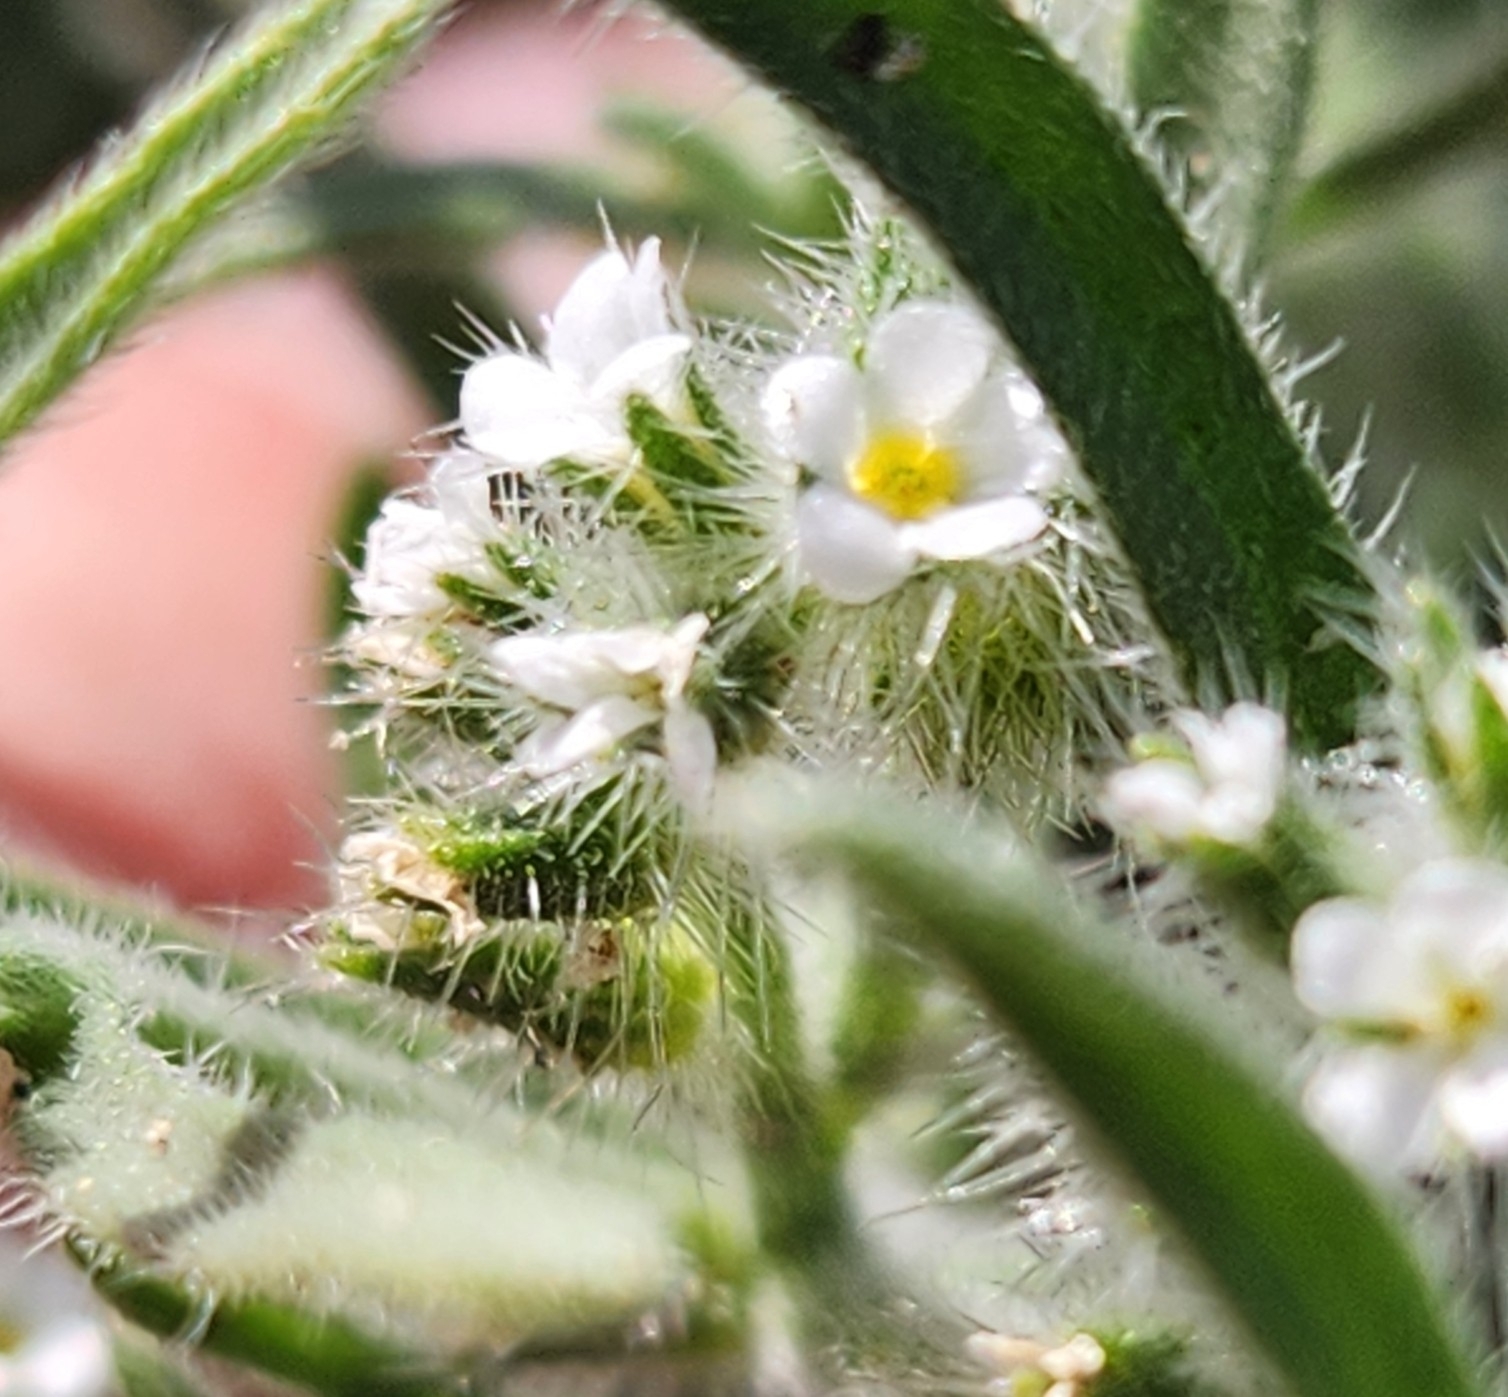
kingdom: Plantae
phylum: Tracheophyta
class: Magnoliopsida
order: Boraginales
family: Boraginaceae
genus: Johnstonella
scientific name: Johnstonella angustifolia
